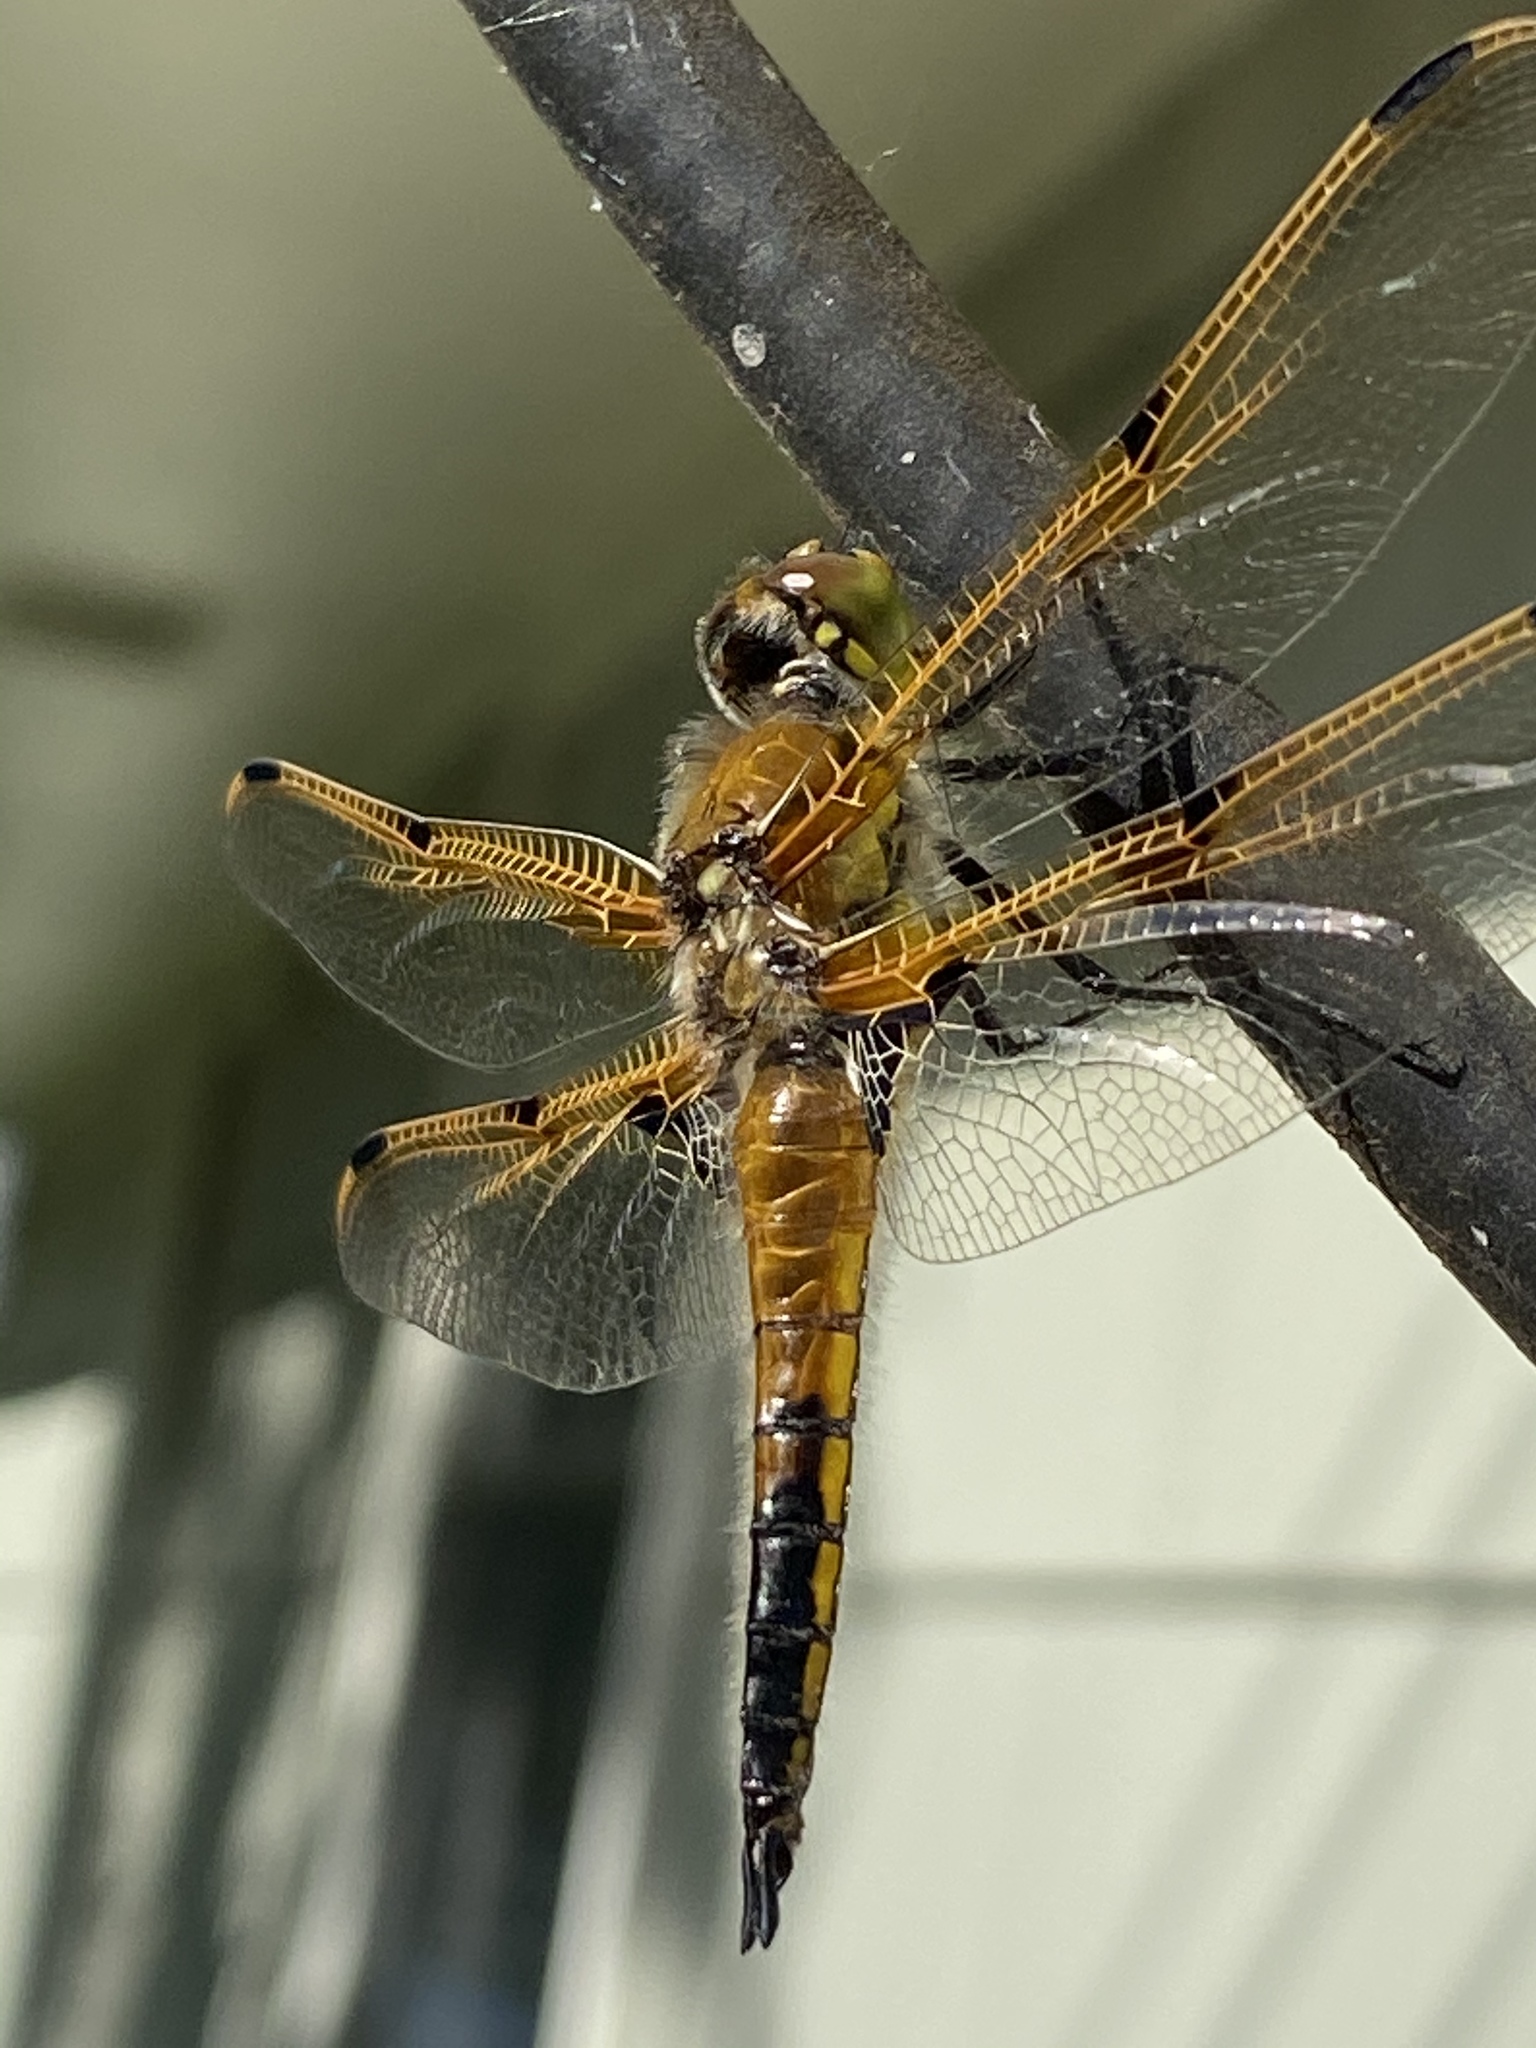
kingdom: Animalia
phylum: Arthropoda
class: Insecta
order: Odonata
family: Libellulidae
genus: Libellula
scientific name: Libellula quadrimaculata
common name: Four-spotted chaser
